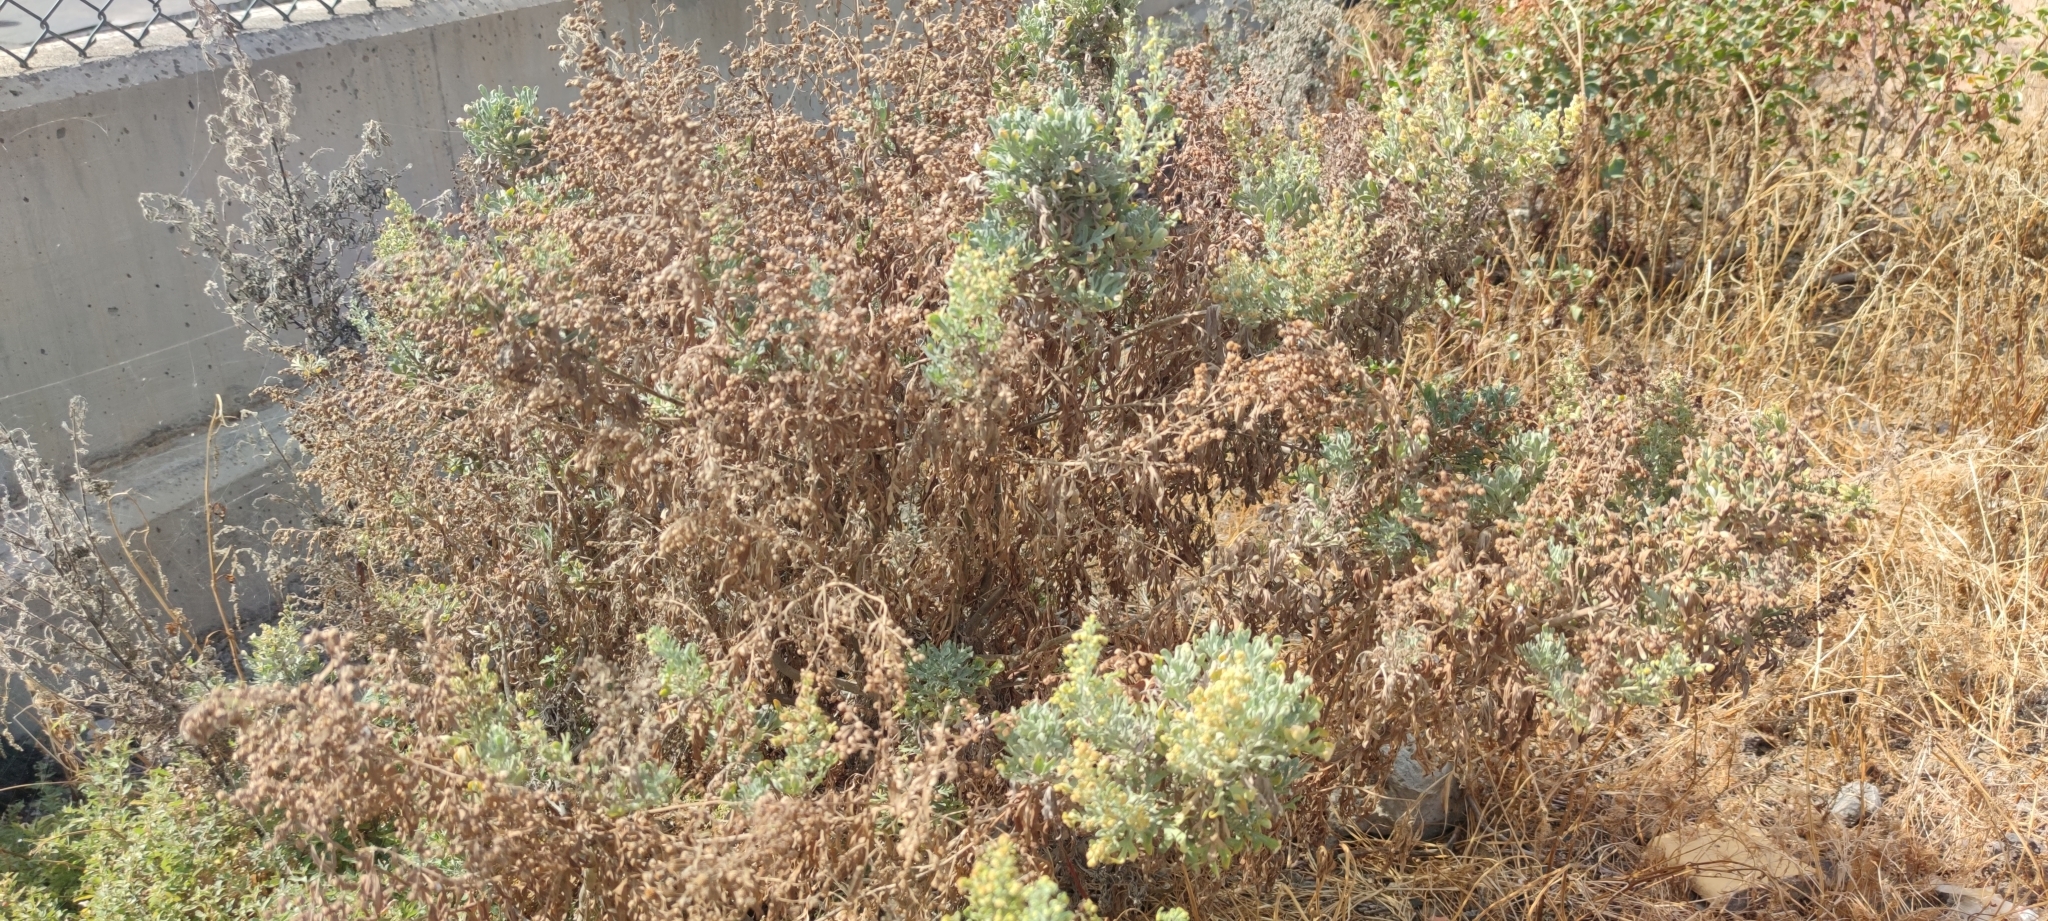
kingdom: Plantae
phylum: Tracheophyta
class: Magnoliopsida
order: Asterales
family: Asteraceae
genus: Artemisia
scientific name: Artemisia thuscula
